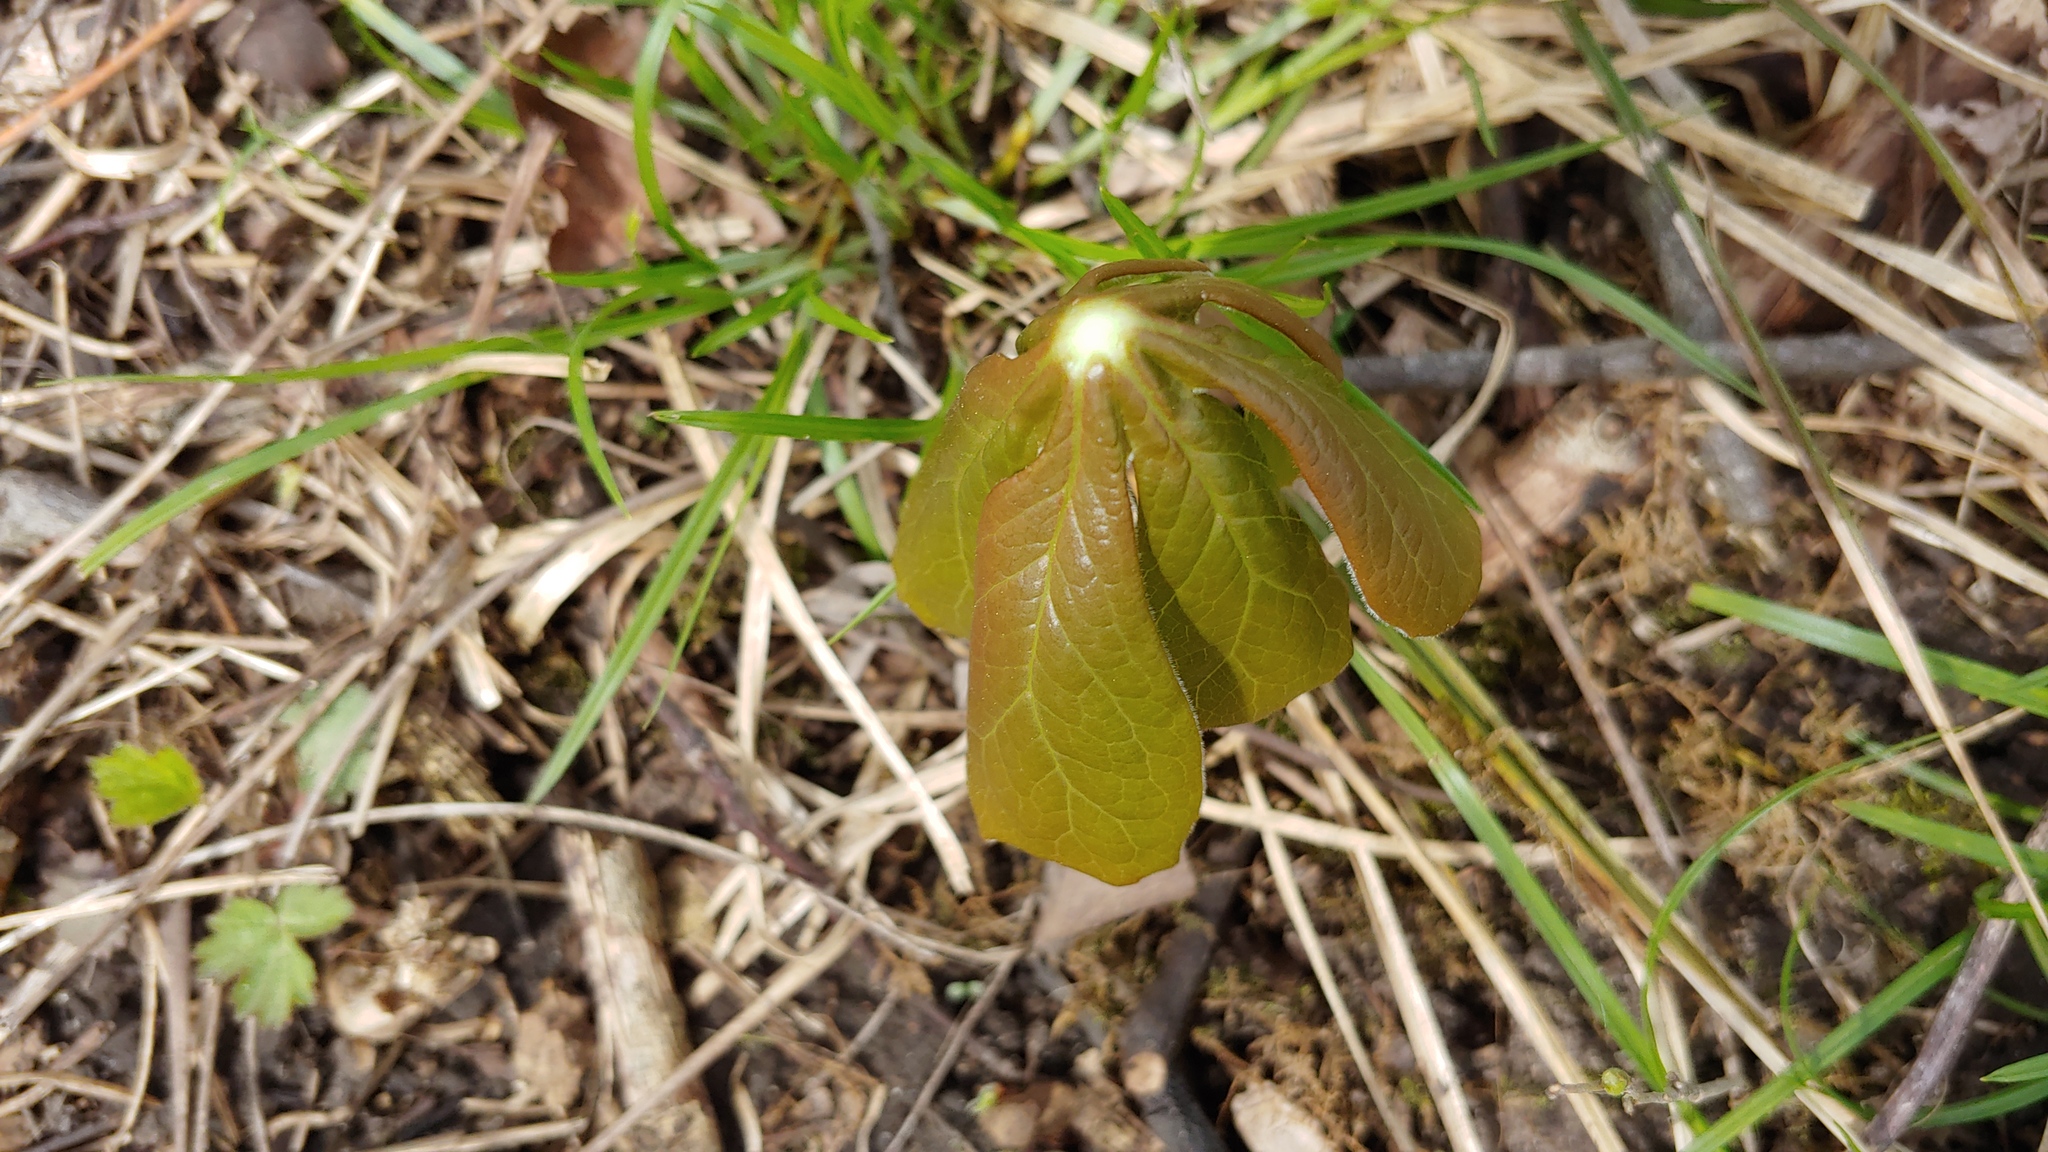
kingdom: Plantae
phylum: Tracheophyta
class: Magnoliopsida
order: Ranunculales
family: Berberidaceae
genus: Podophyllum
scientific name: Podophyllum peltatum
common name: Wild mandrake
